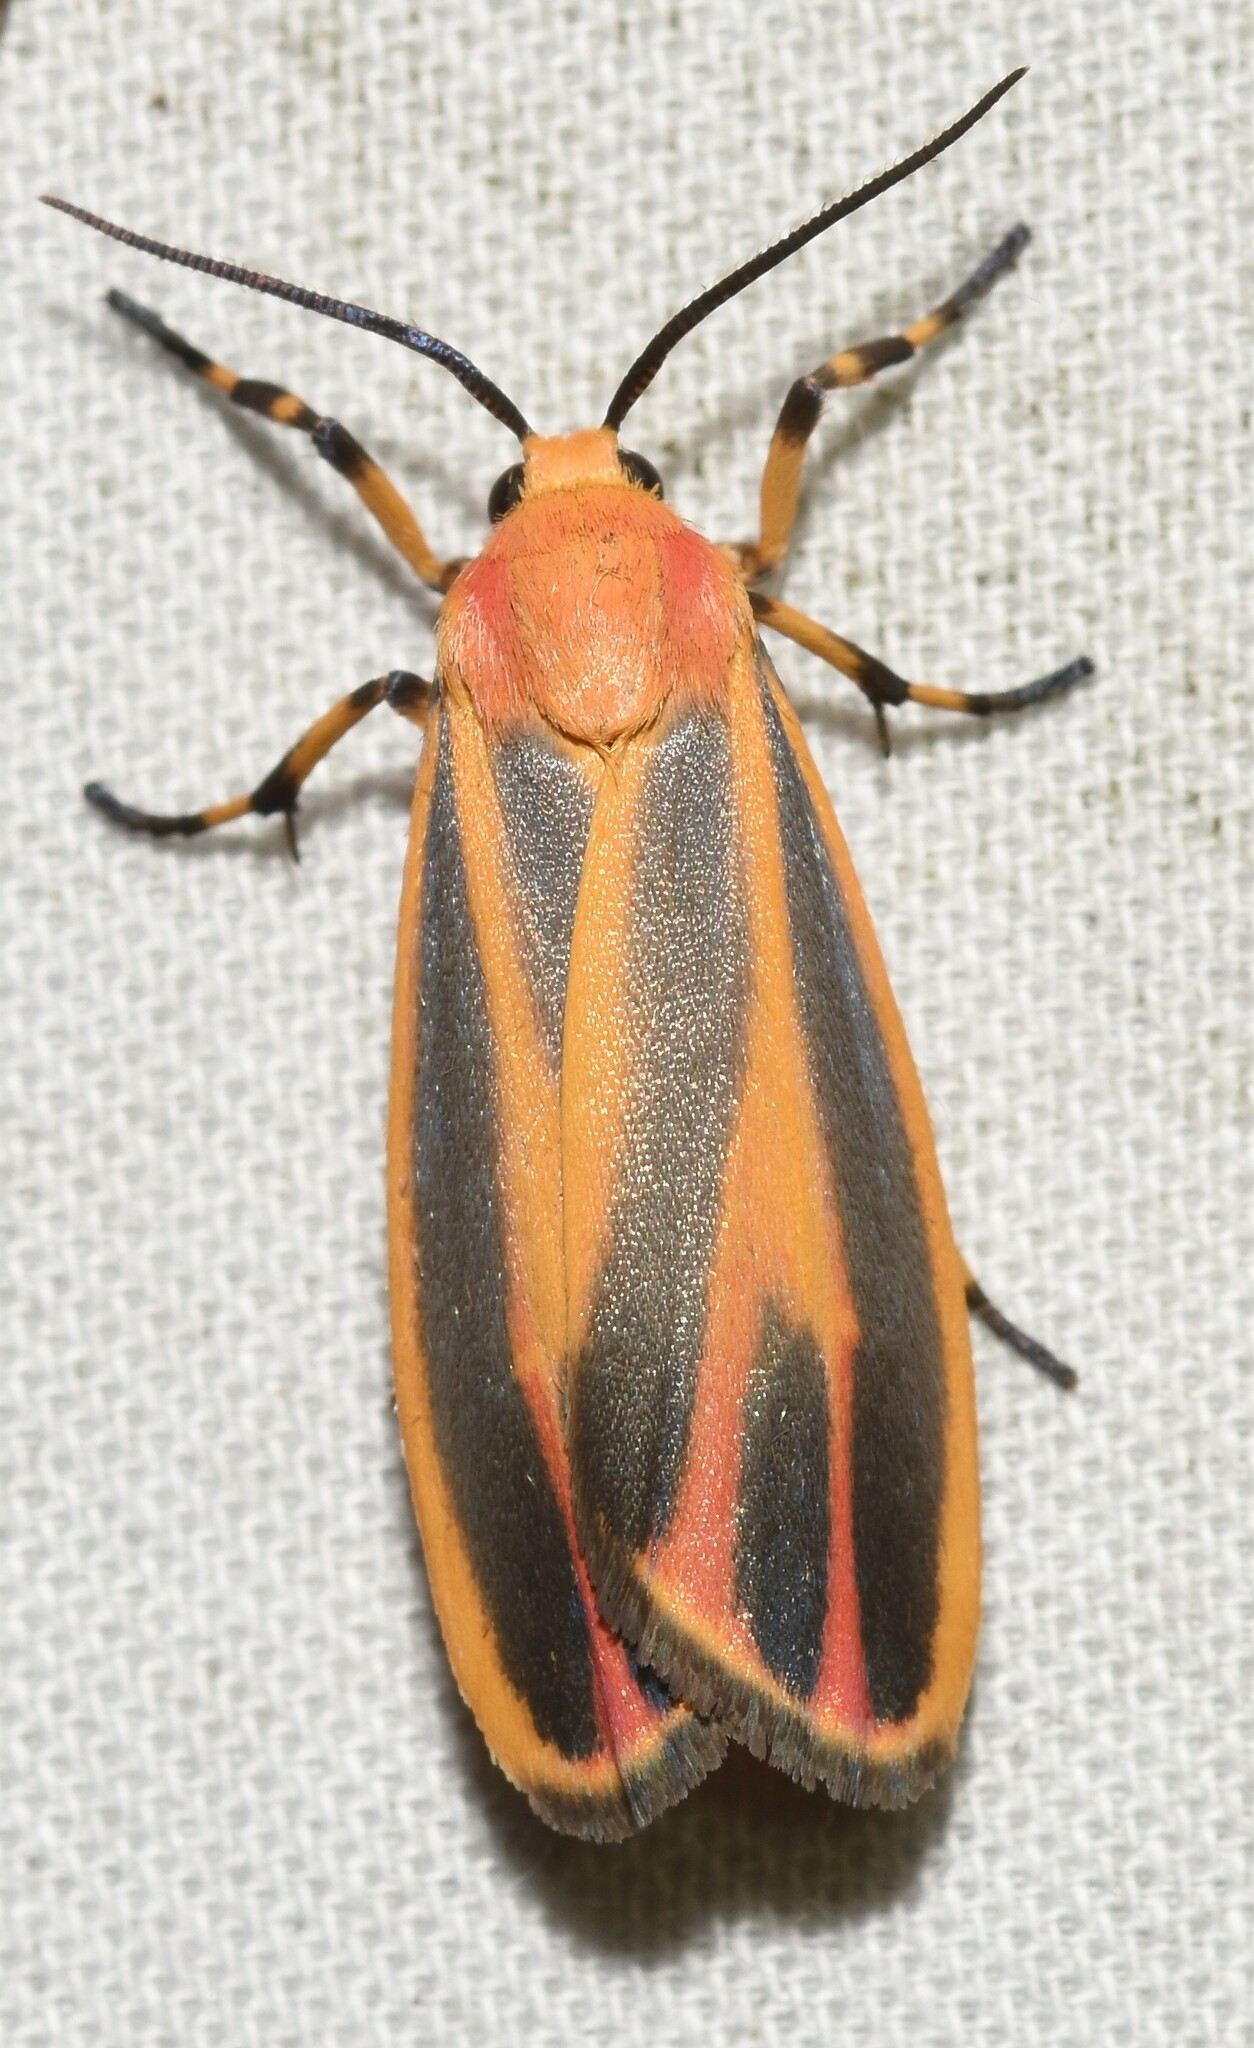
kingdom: Animalia
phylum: Arthropoda
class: Insecta
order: Lepidoptera
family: Erebidae
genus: Hypoprepia
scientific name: Hypoprepia fucosa
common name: Painted lichen moth
